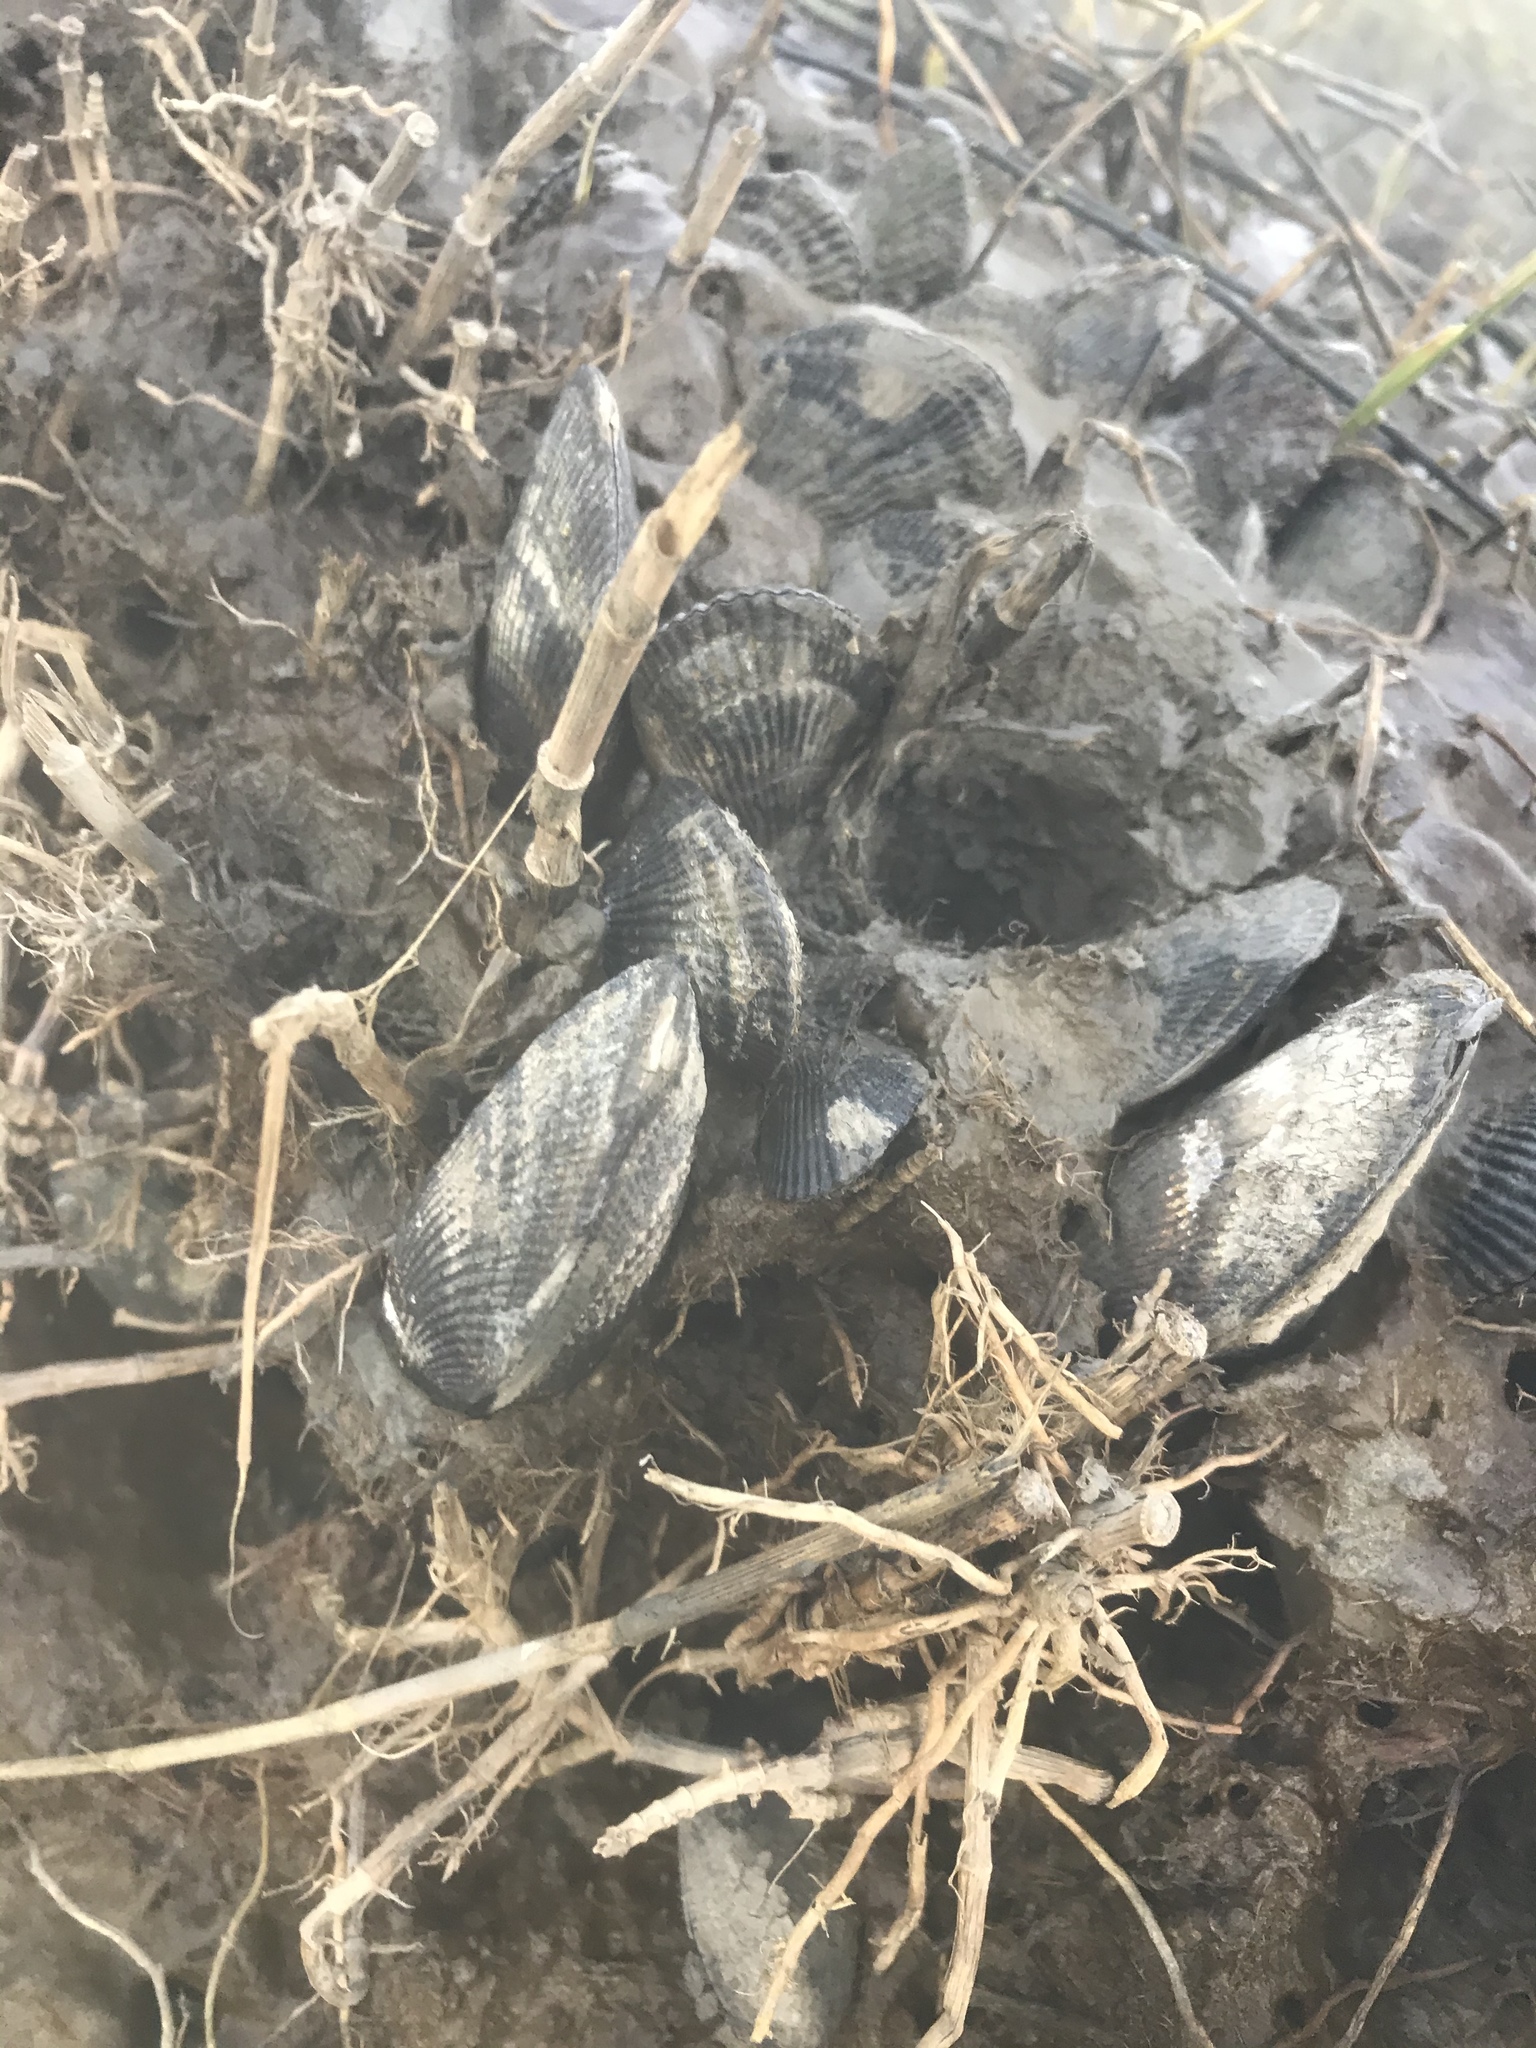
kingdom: Animalia
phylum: Mollusca
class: Bivalvia
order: Mytilida
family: Mytilidae
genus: Geukensia
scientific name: Geukensia demissa
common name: Ribbed mussel
